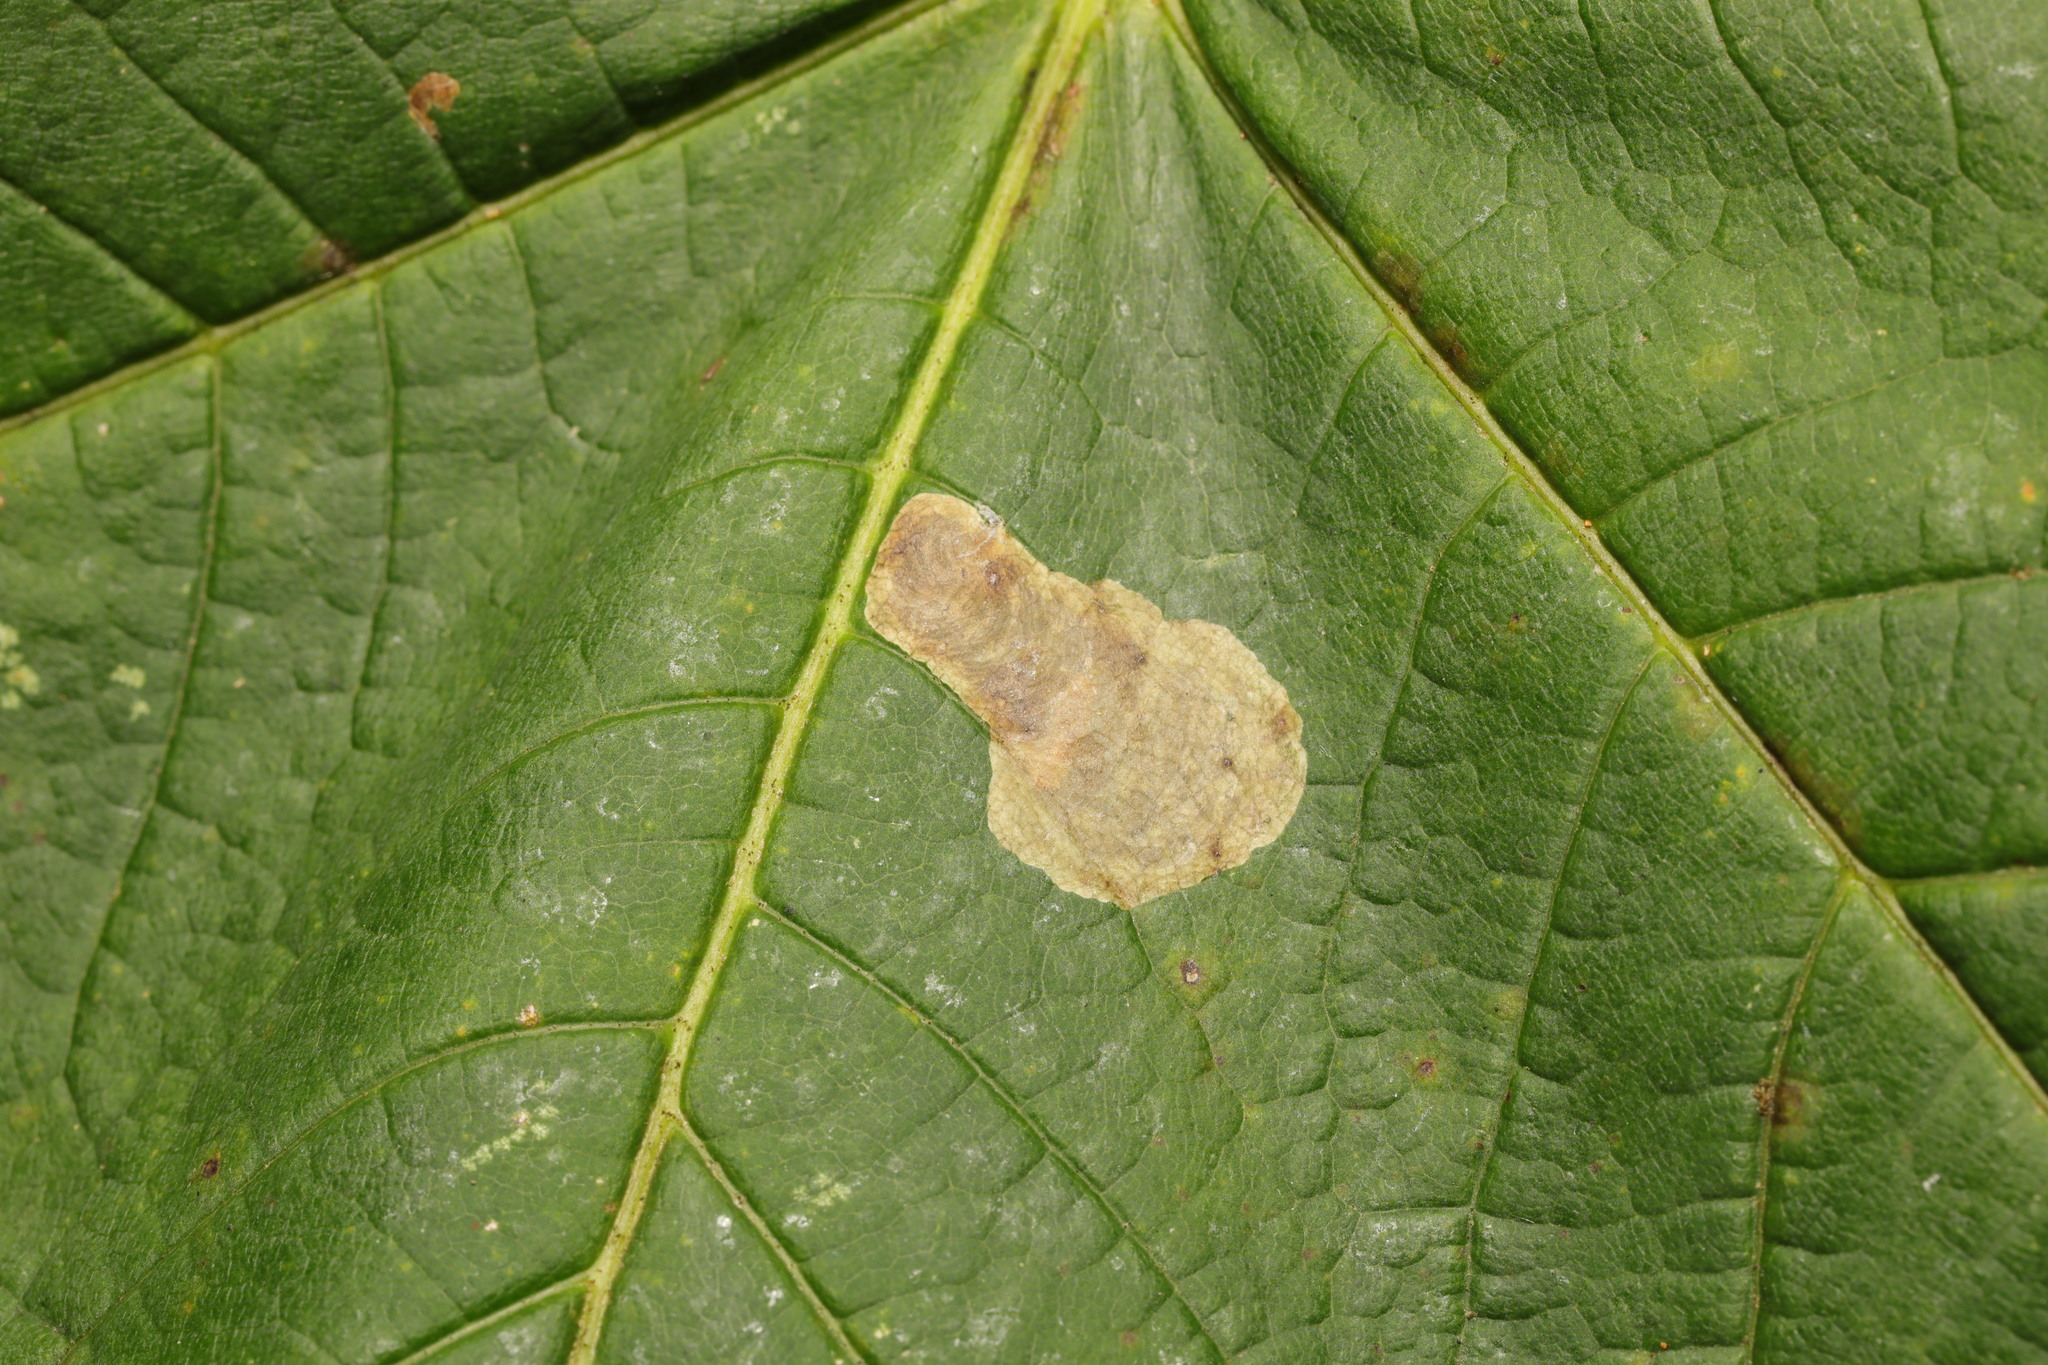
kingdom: Animalia
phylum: Arthropoda
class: Insecta
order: Lepidoptera
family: Gracillariidae
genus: Cameraria
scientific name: Cameraria ohridella
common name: Horse-chestnut leaf-miner
